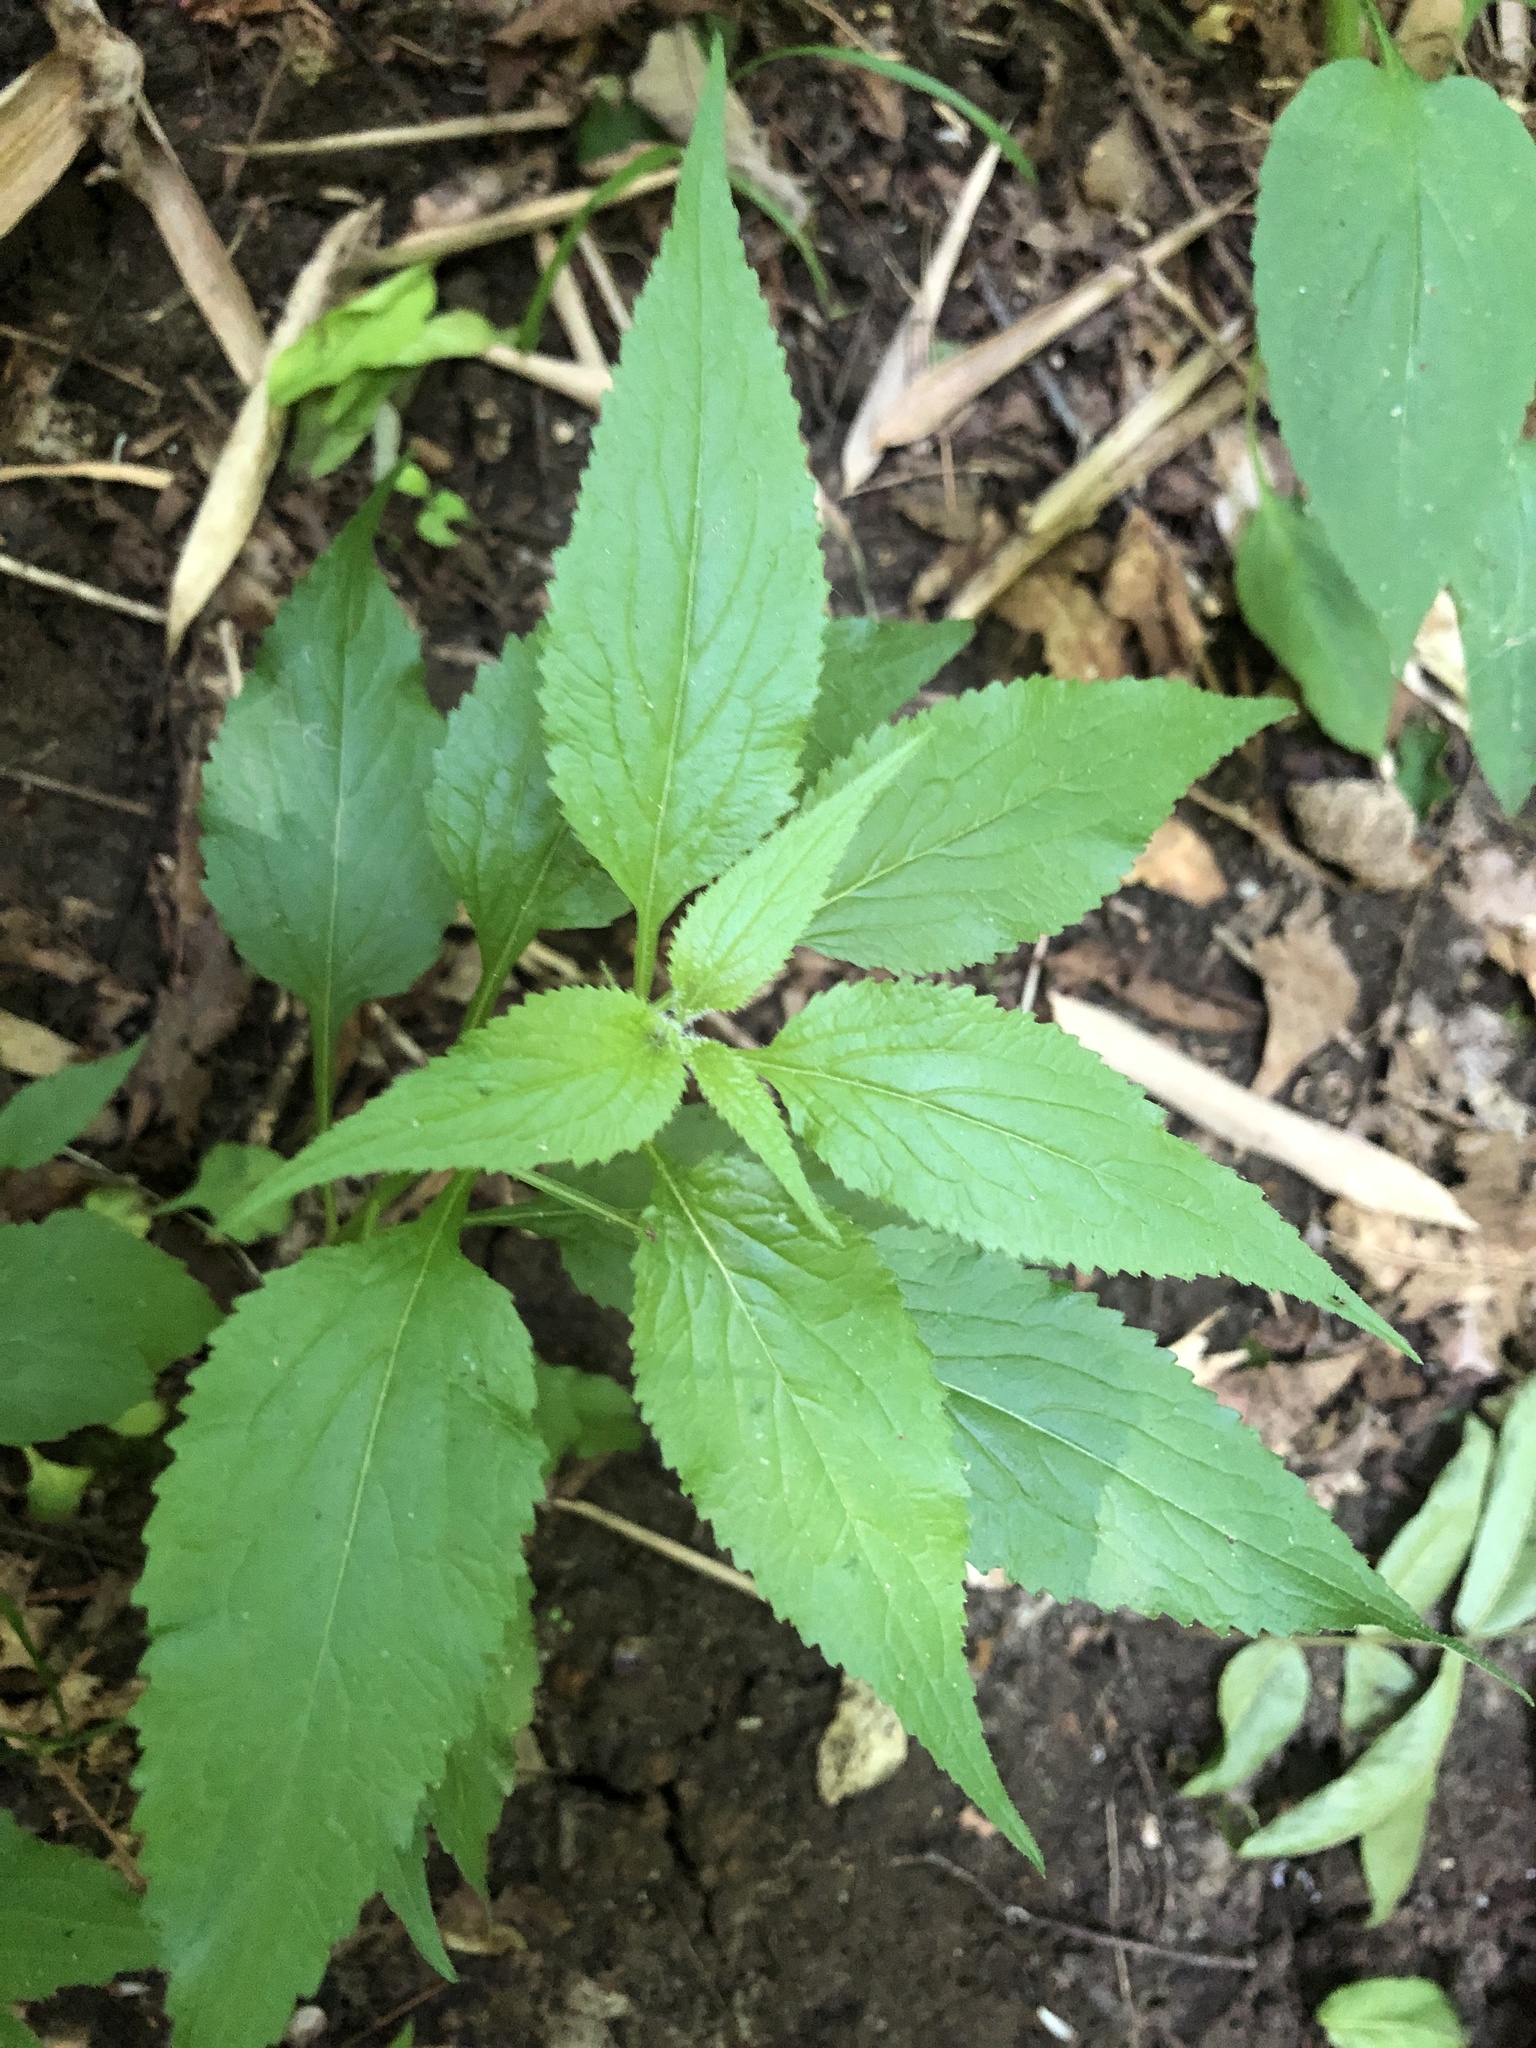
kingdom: Plantae
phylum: Tracheophyta
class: Magnoliopsida
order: Asterales
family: Campanulaceae
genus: Campanulastrum
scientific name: Campanulastrum americanum
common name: American bellflower
